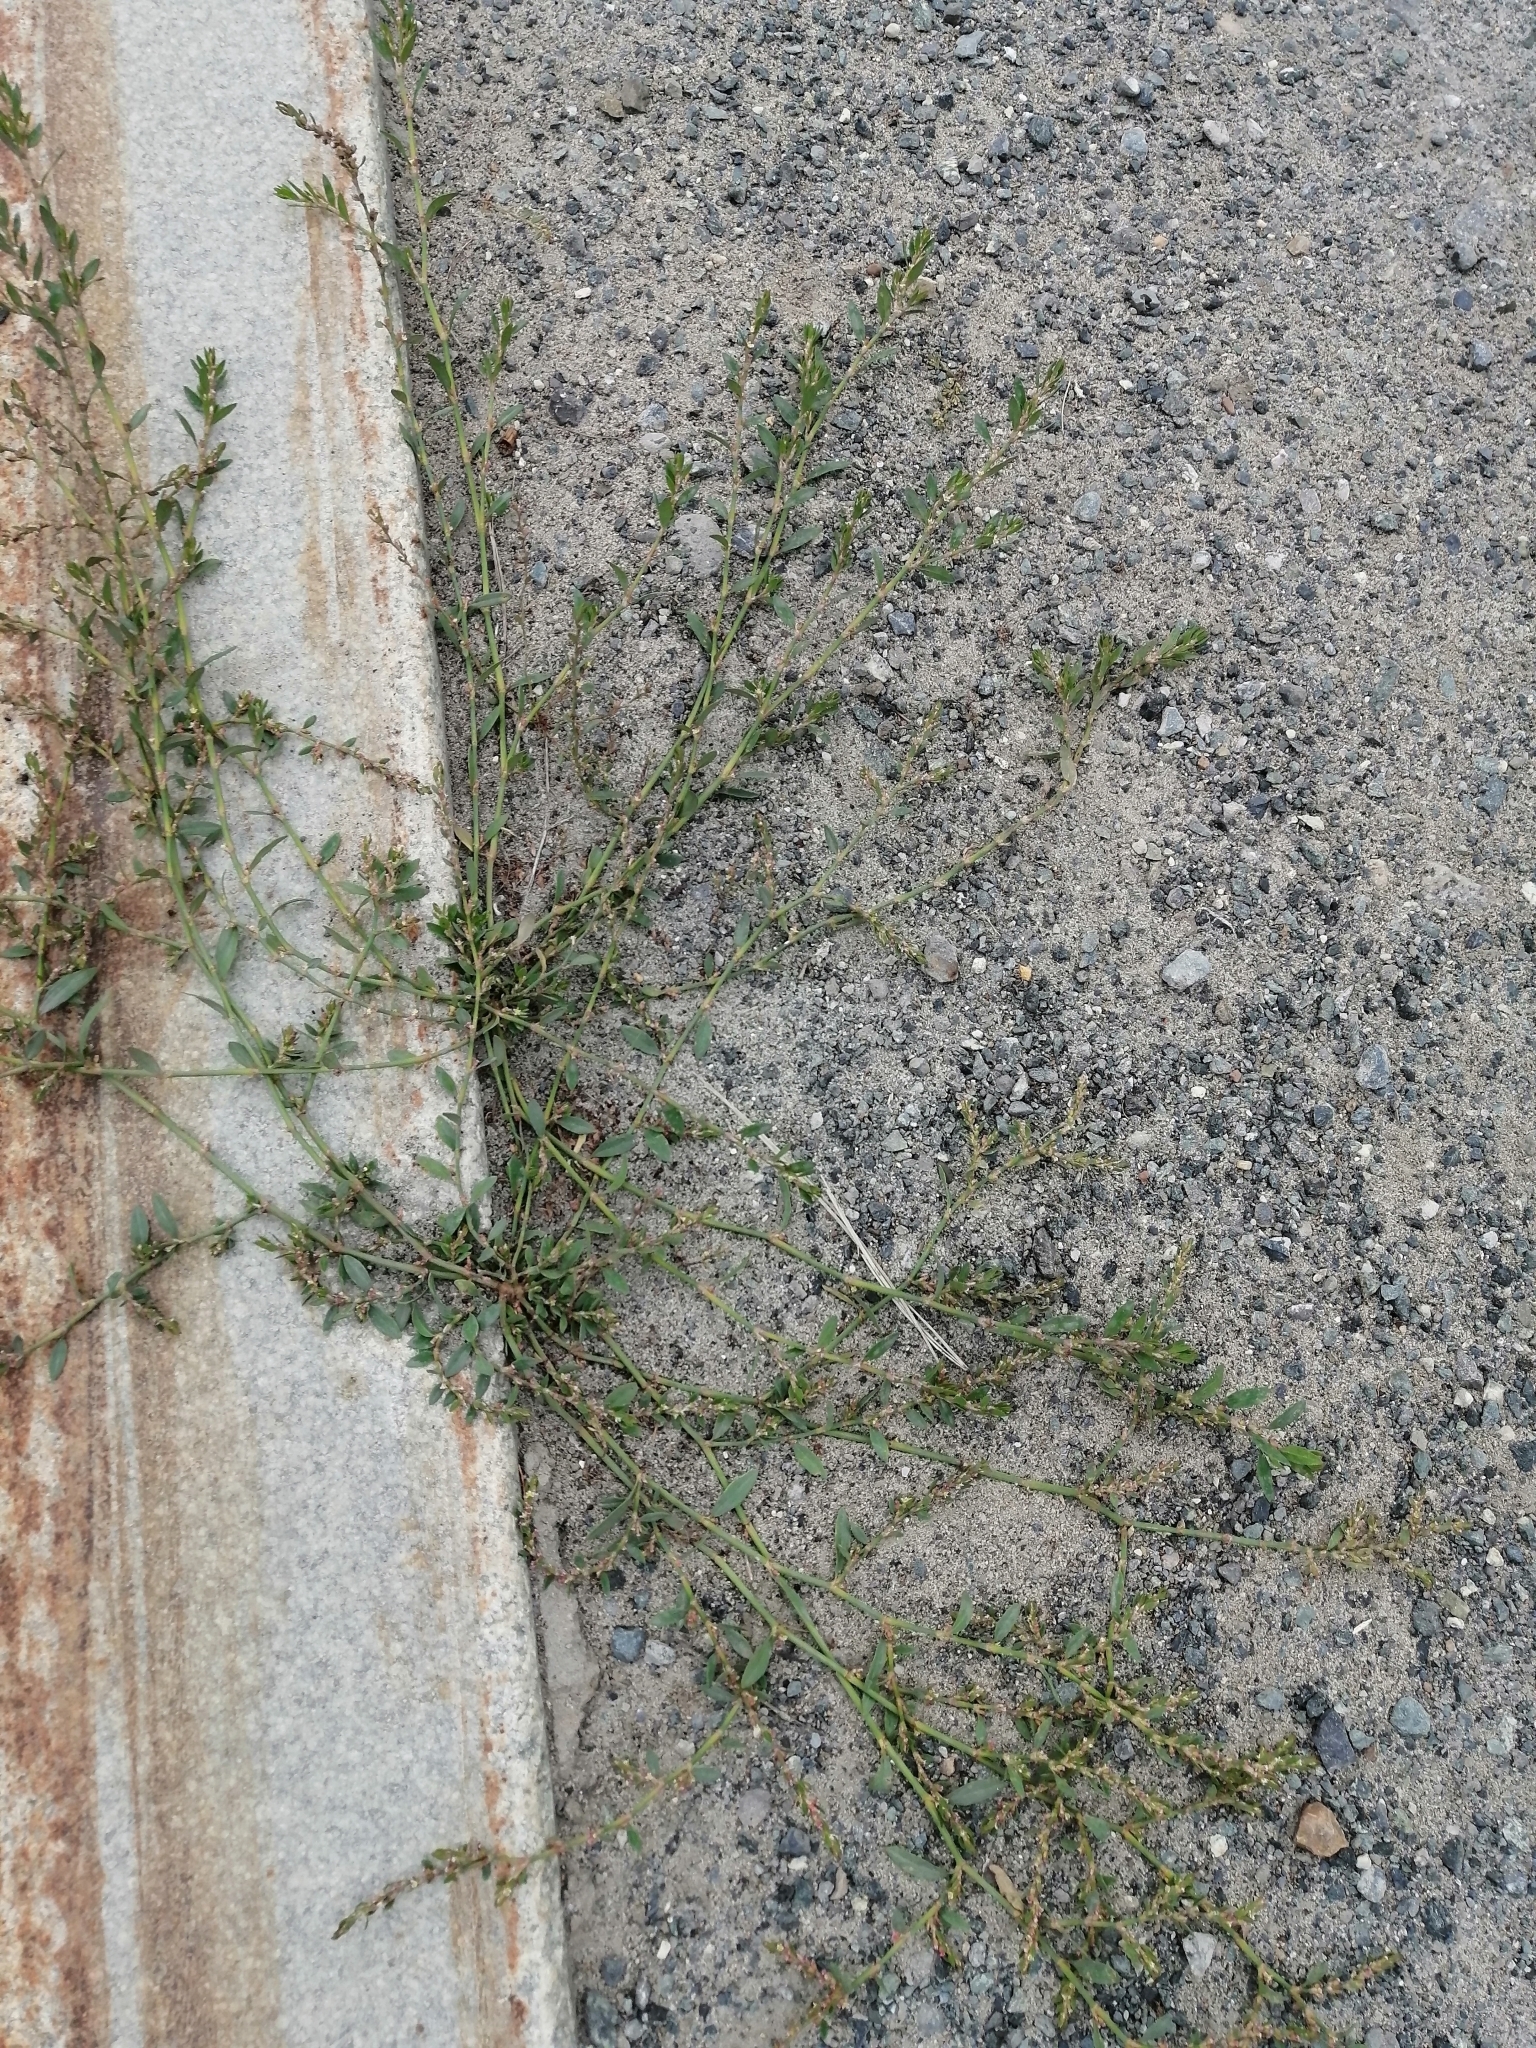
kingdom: Plantae
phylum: Tracheophyta
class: Magnoliopsida
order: Caryophyllales
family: Polygonaceae
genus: Polygonum
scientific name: Polygonum
